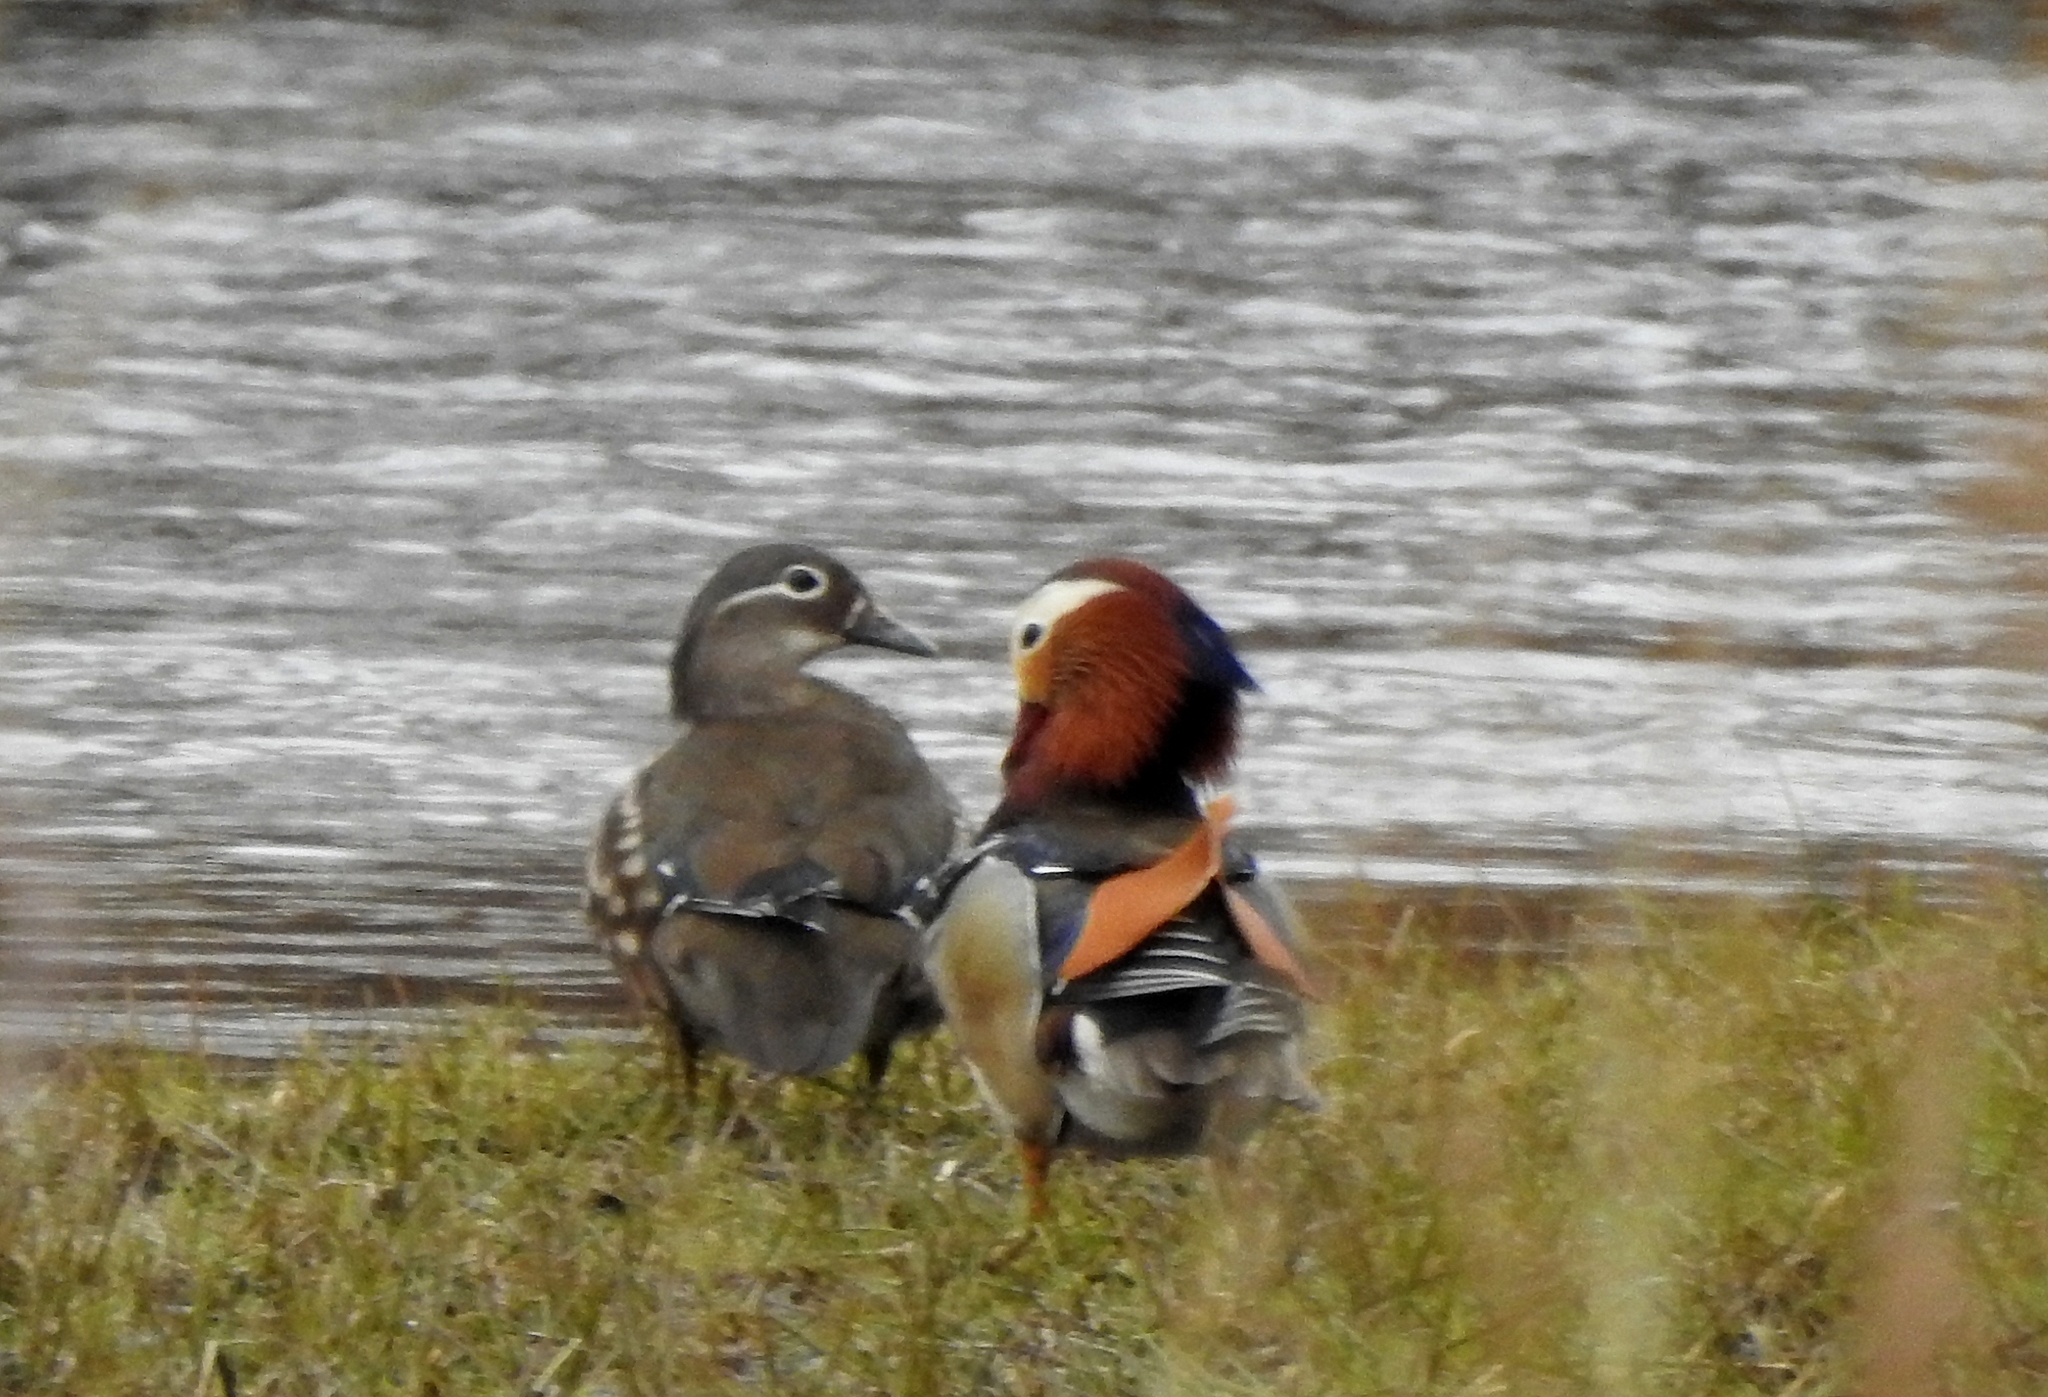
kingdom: Animalia
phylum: Chordata
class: Aves
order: Anseriformes
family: Anatidae
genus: Aix
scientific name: Aix galericulata
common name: Mandarin duck
